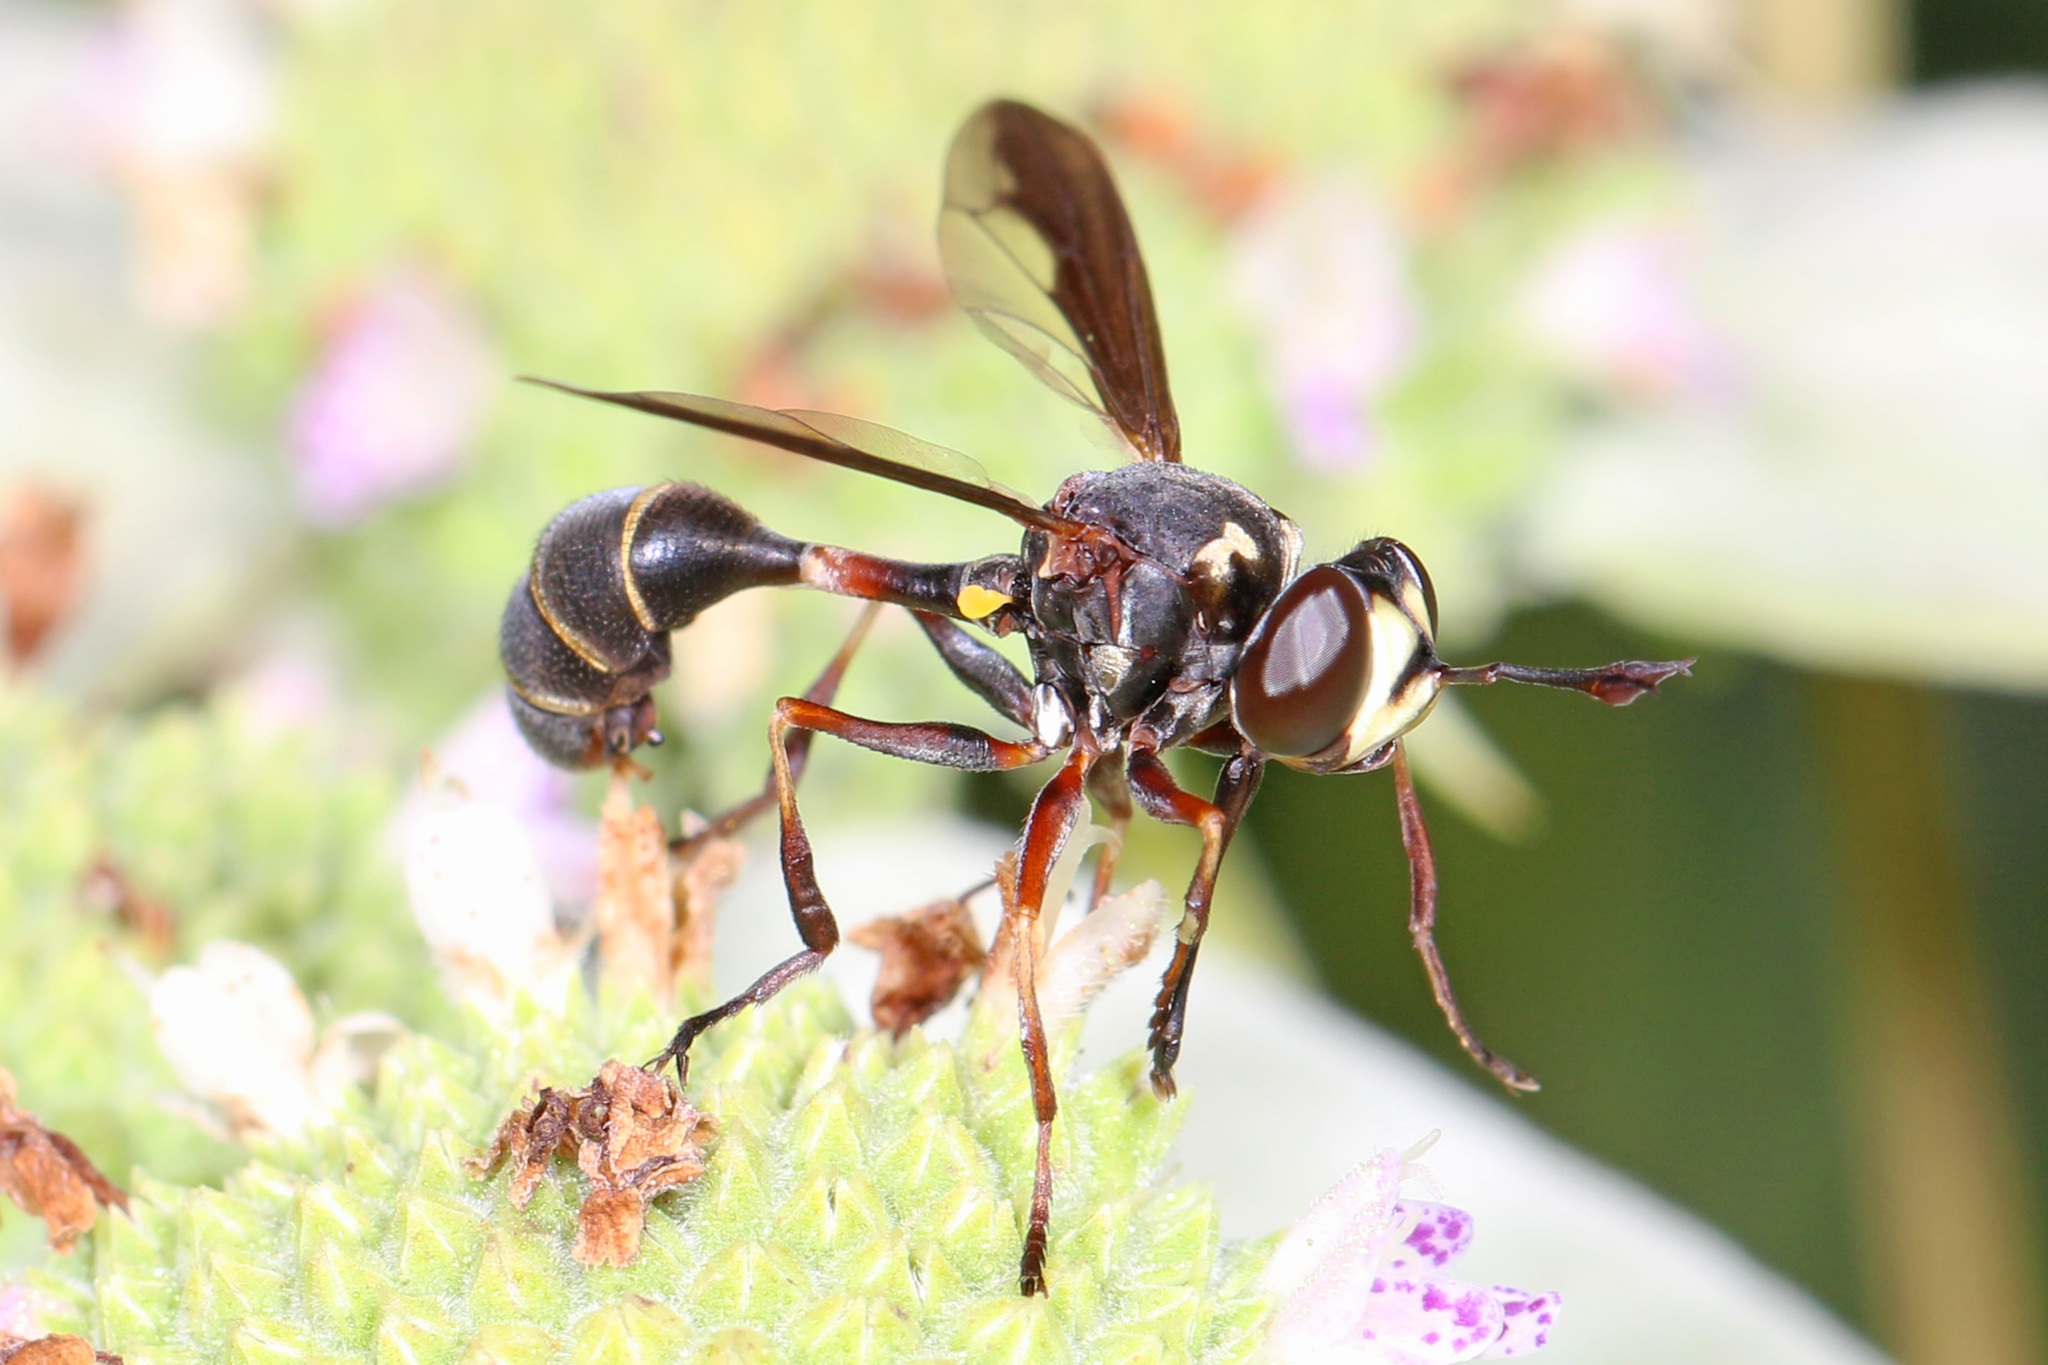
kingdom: Animalia
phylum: Arthropoda
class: Insecta
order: Diptera
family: Conopidae
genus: Physocephala
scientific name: Physocephala marginata
